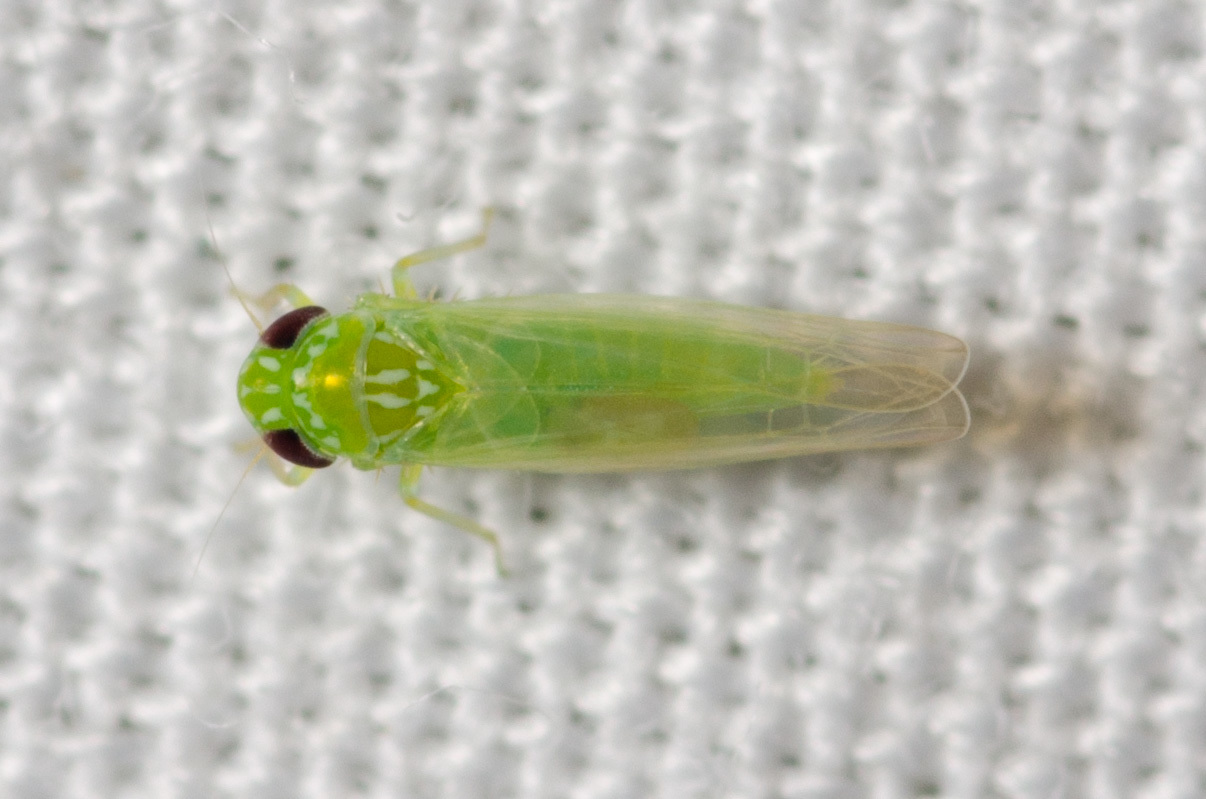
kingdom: Animalia
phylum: Arthropoda
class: Insecta
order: Hemiptera
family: Cicadellidae
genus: Empoasca
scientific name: Empoasca fabae
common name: Potato leafhopper
